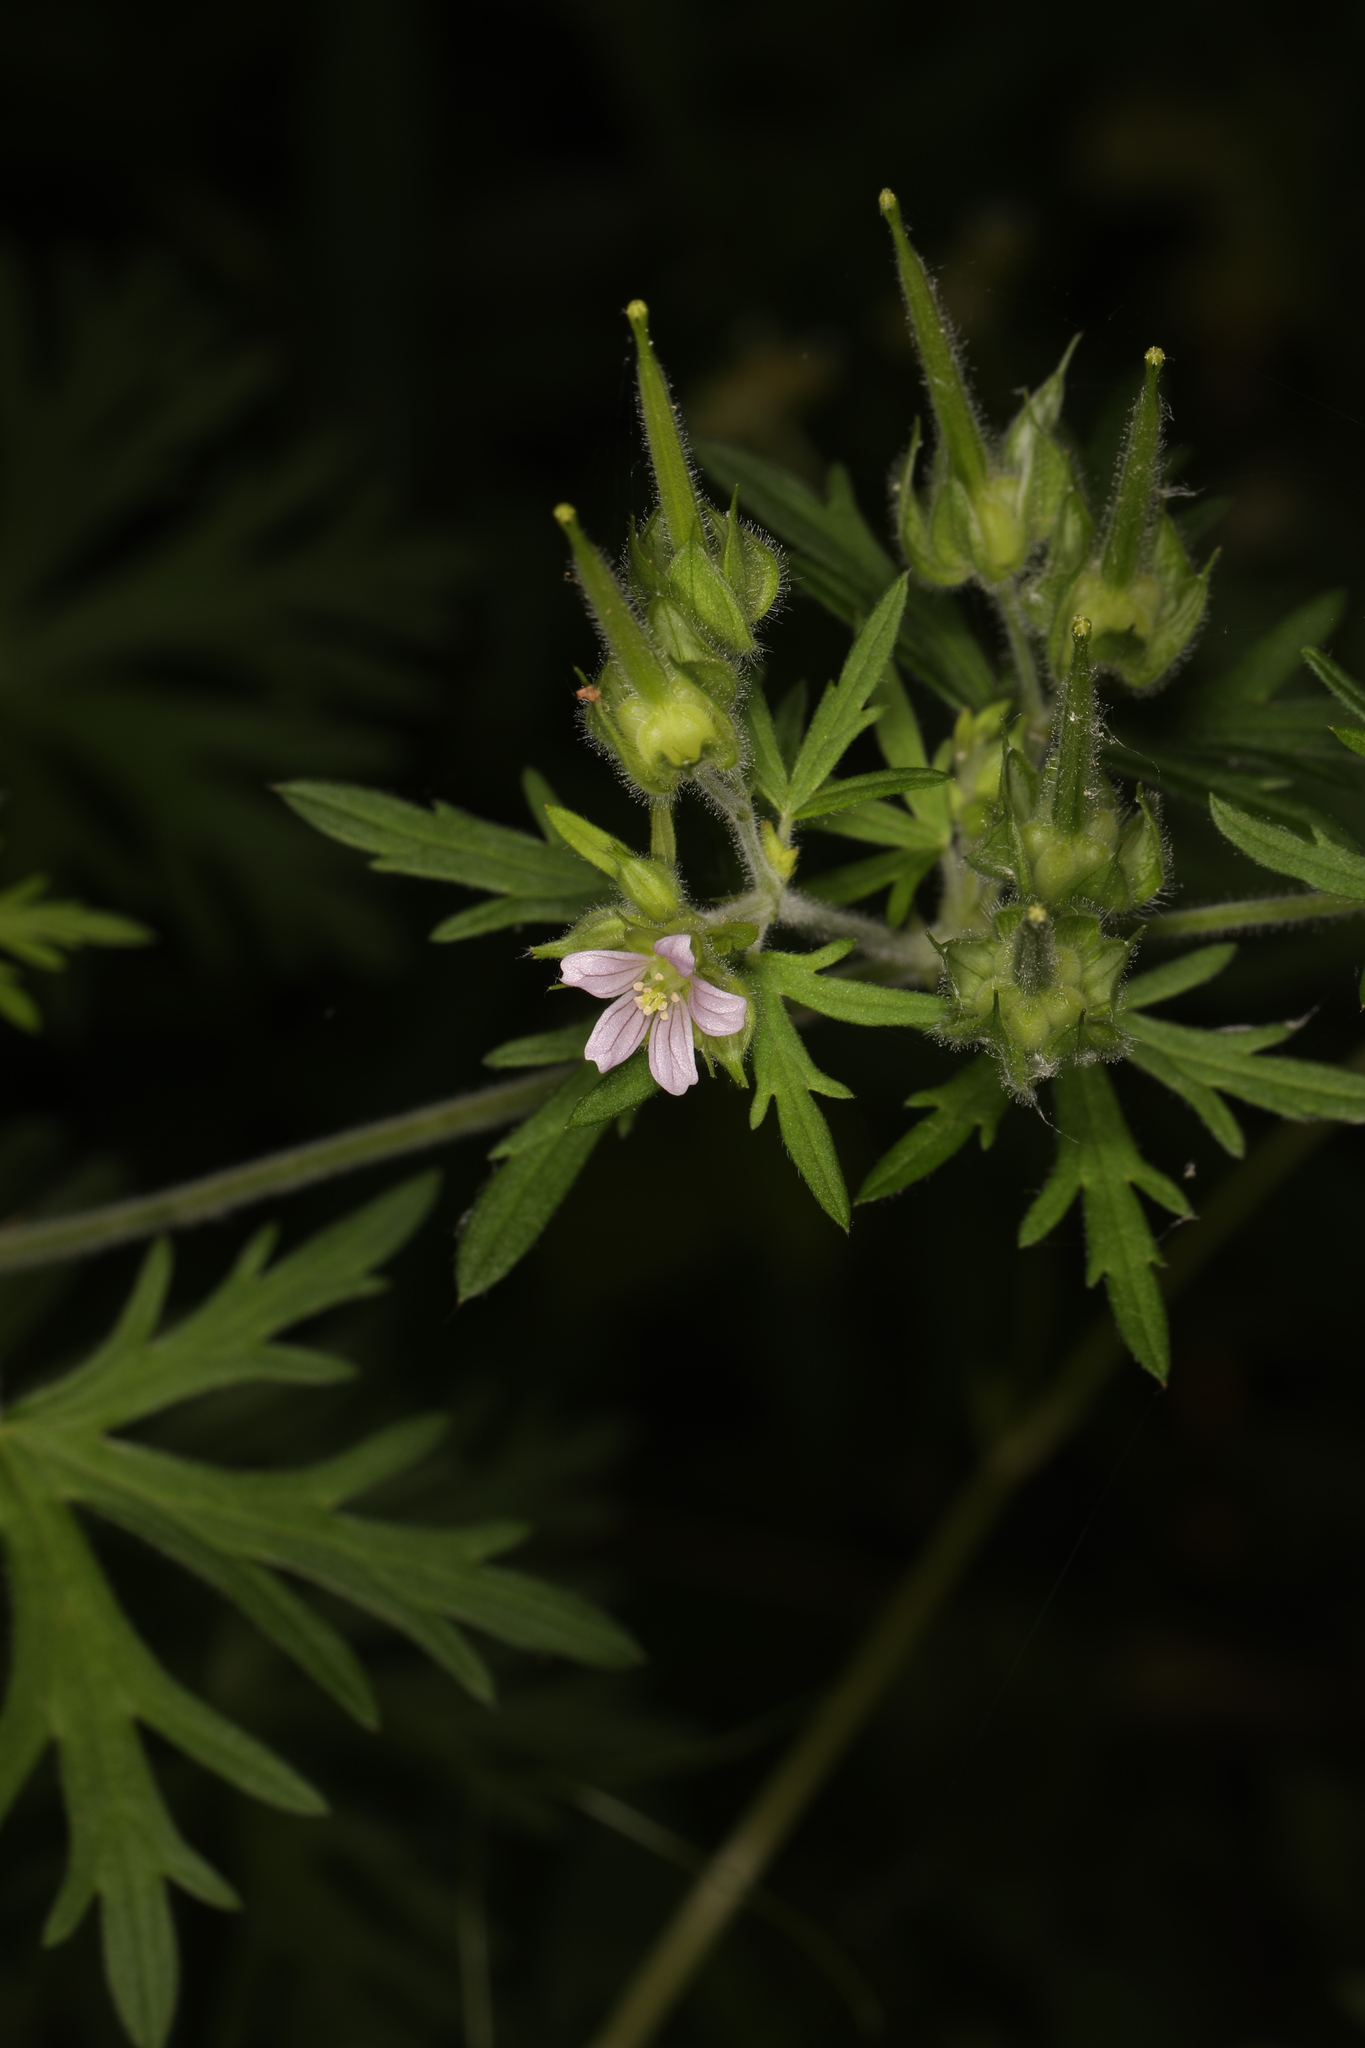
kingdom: Plantae
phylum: Tracheophyta
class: Magnoliopsida
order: Geraniales
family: Geraniaceae
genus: Geranium
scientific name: Geranium carolinianum
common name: Carolina crane's-bill
